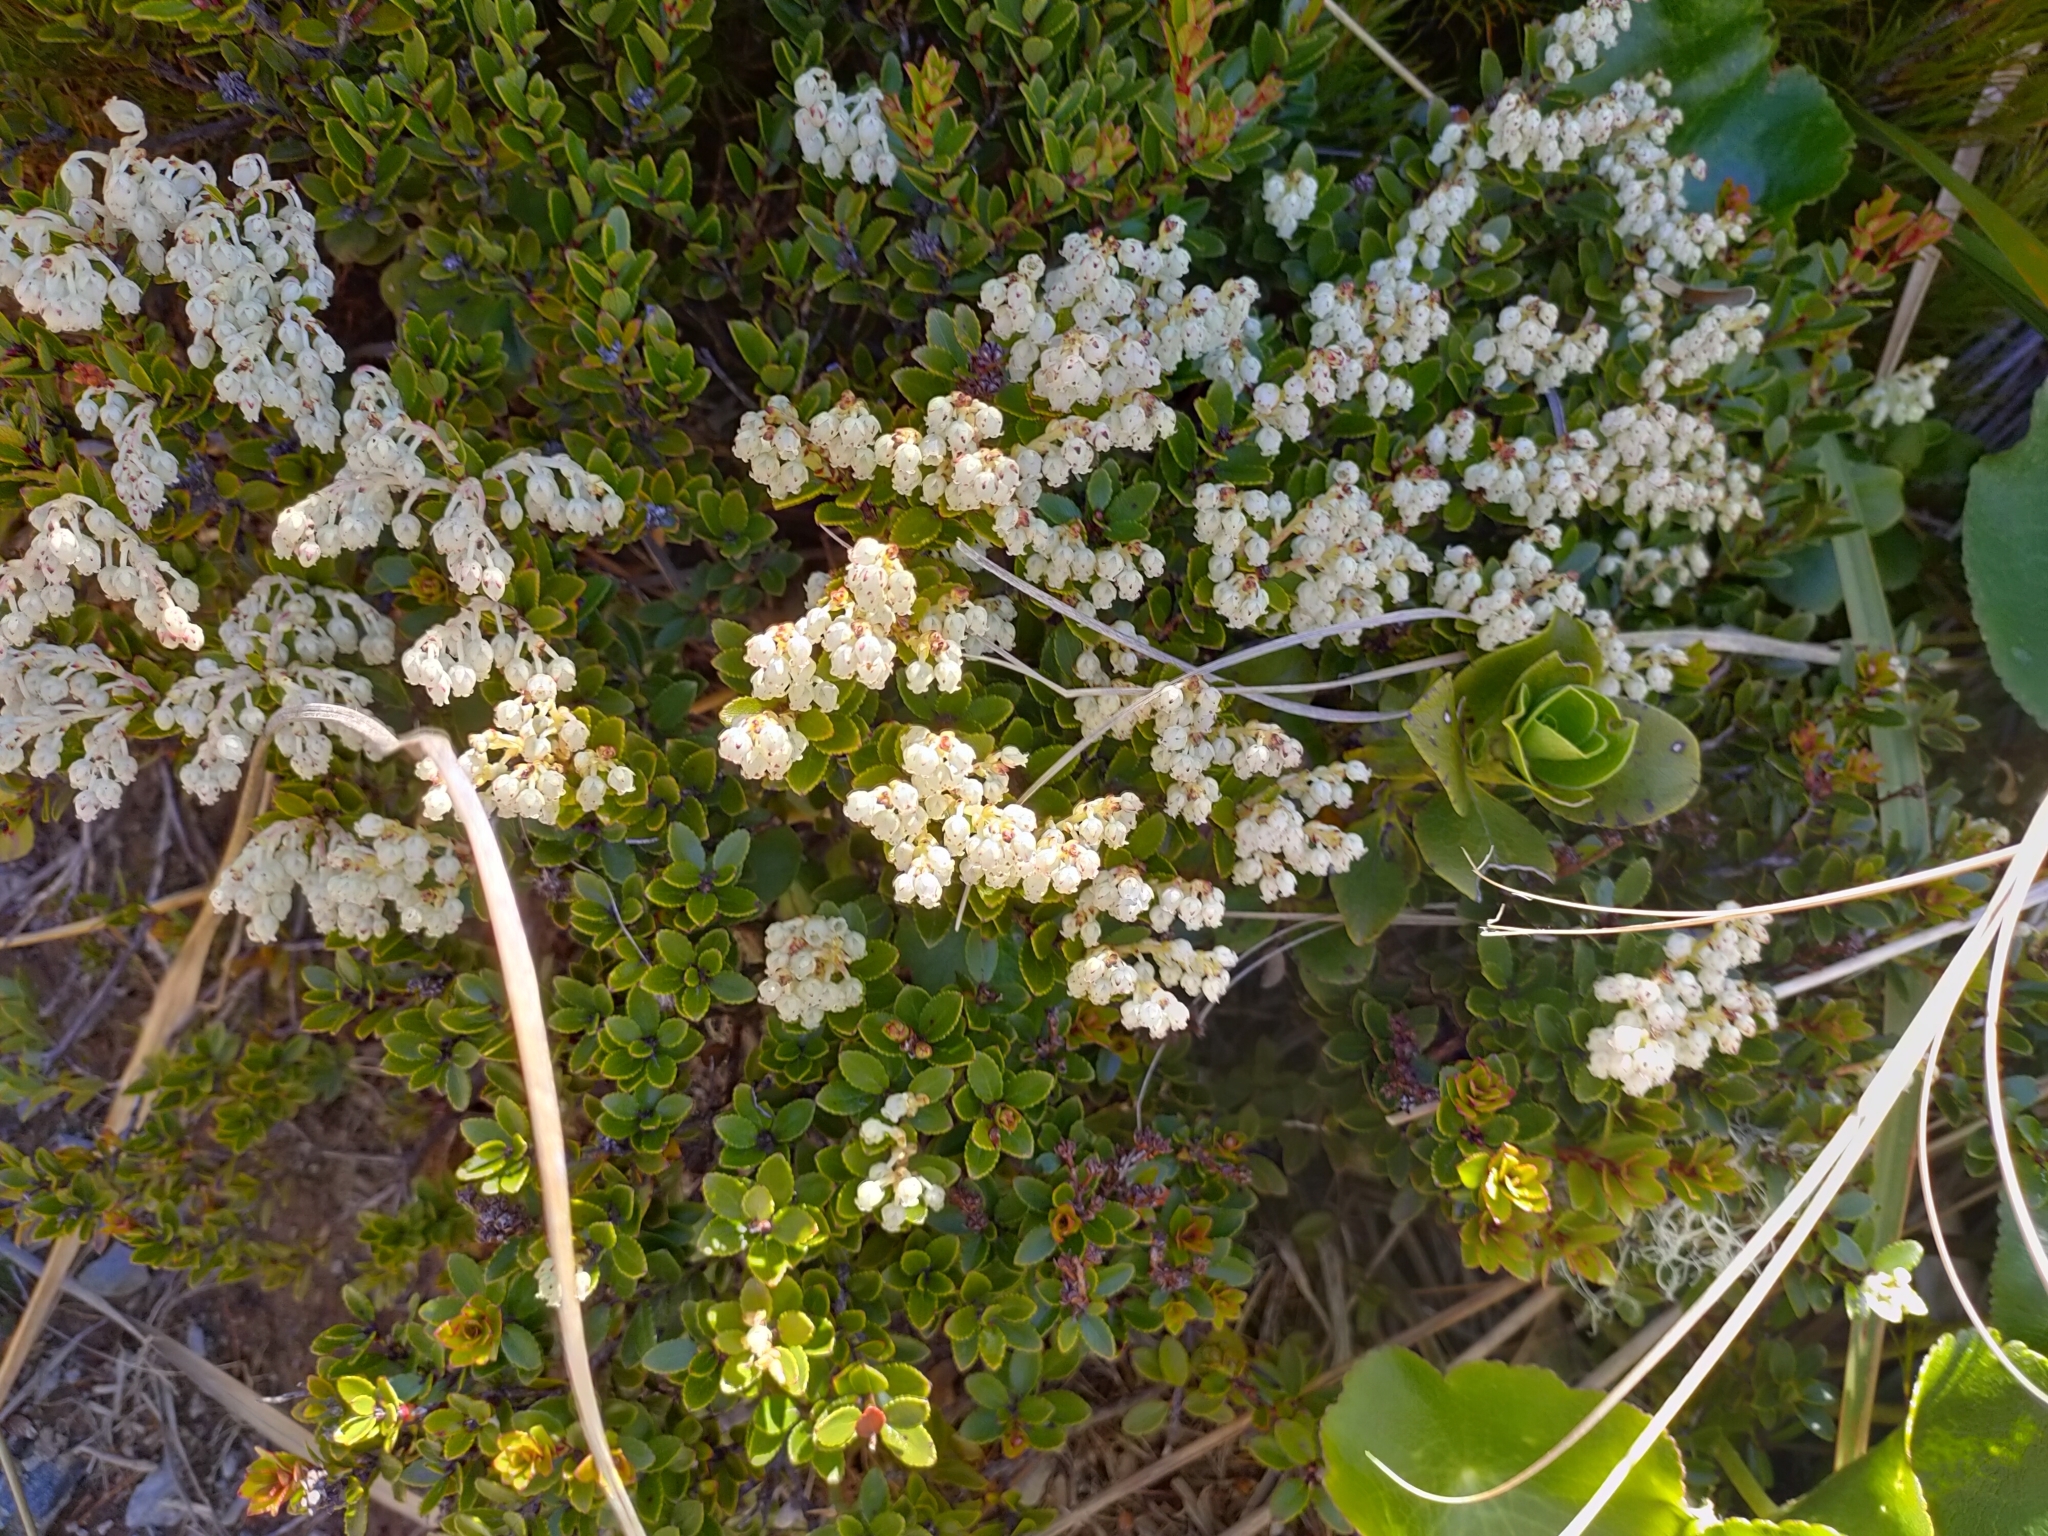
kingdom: Plantae
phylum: Tracheophyta
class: Magnoliopsida
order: Ericales
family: Ericaceae
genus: Gaultheria
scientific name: Gaultheria crassa
